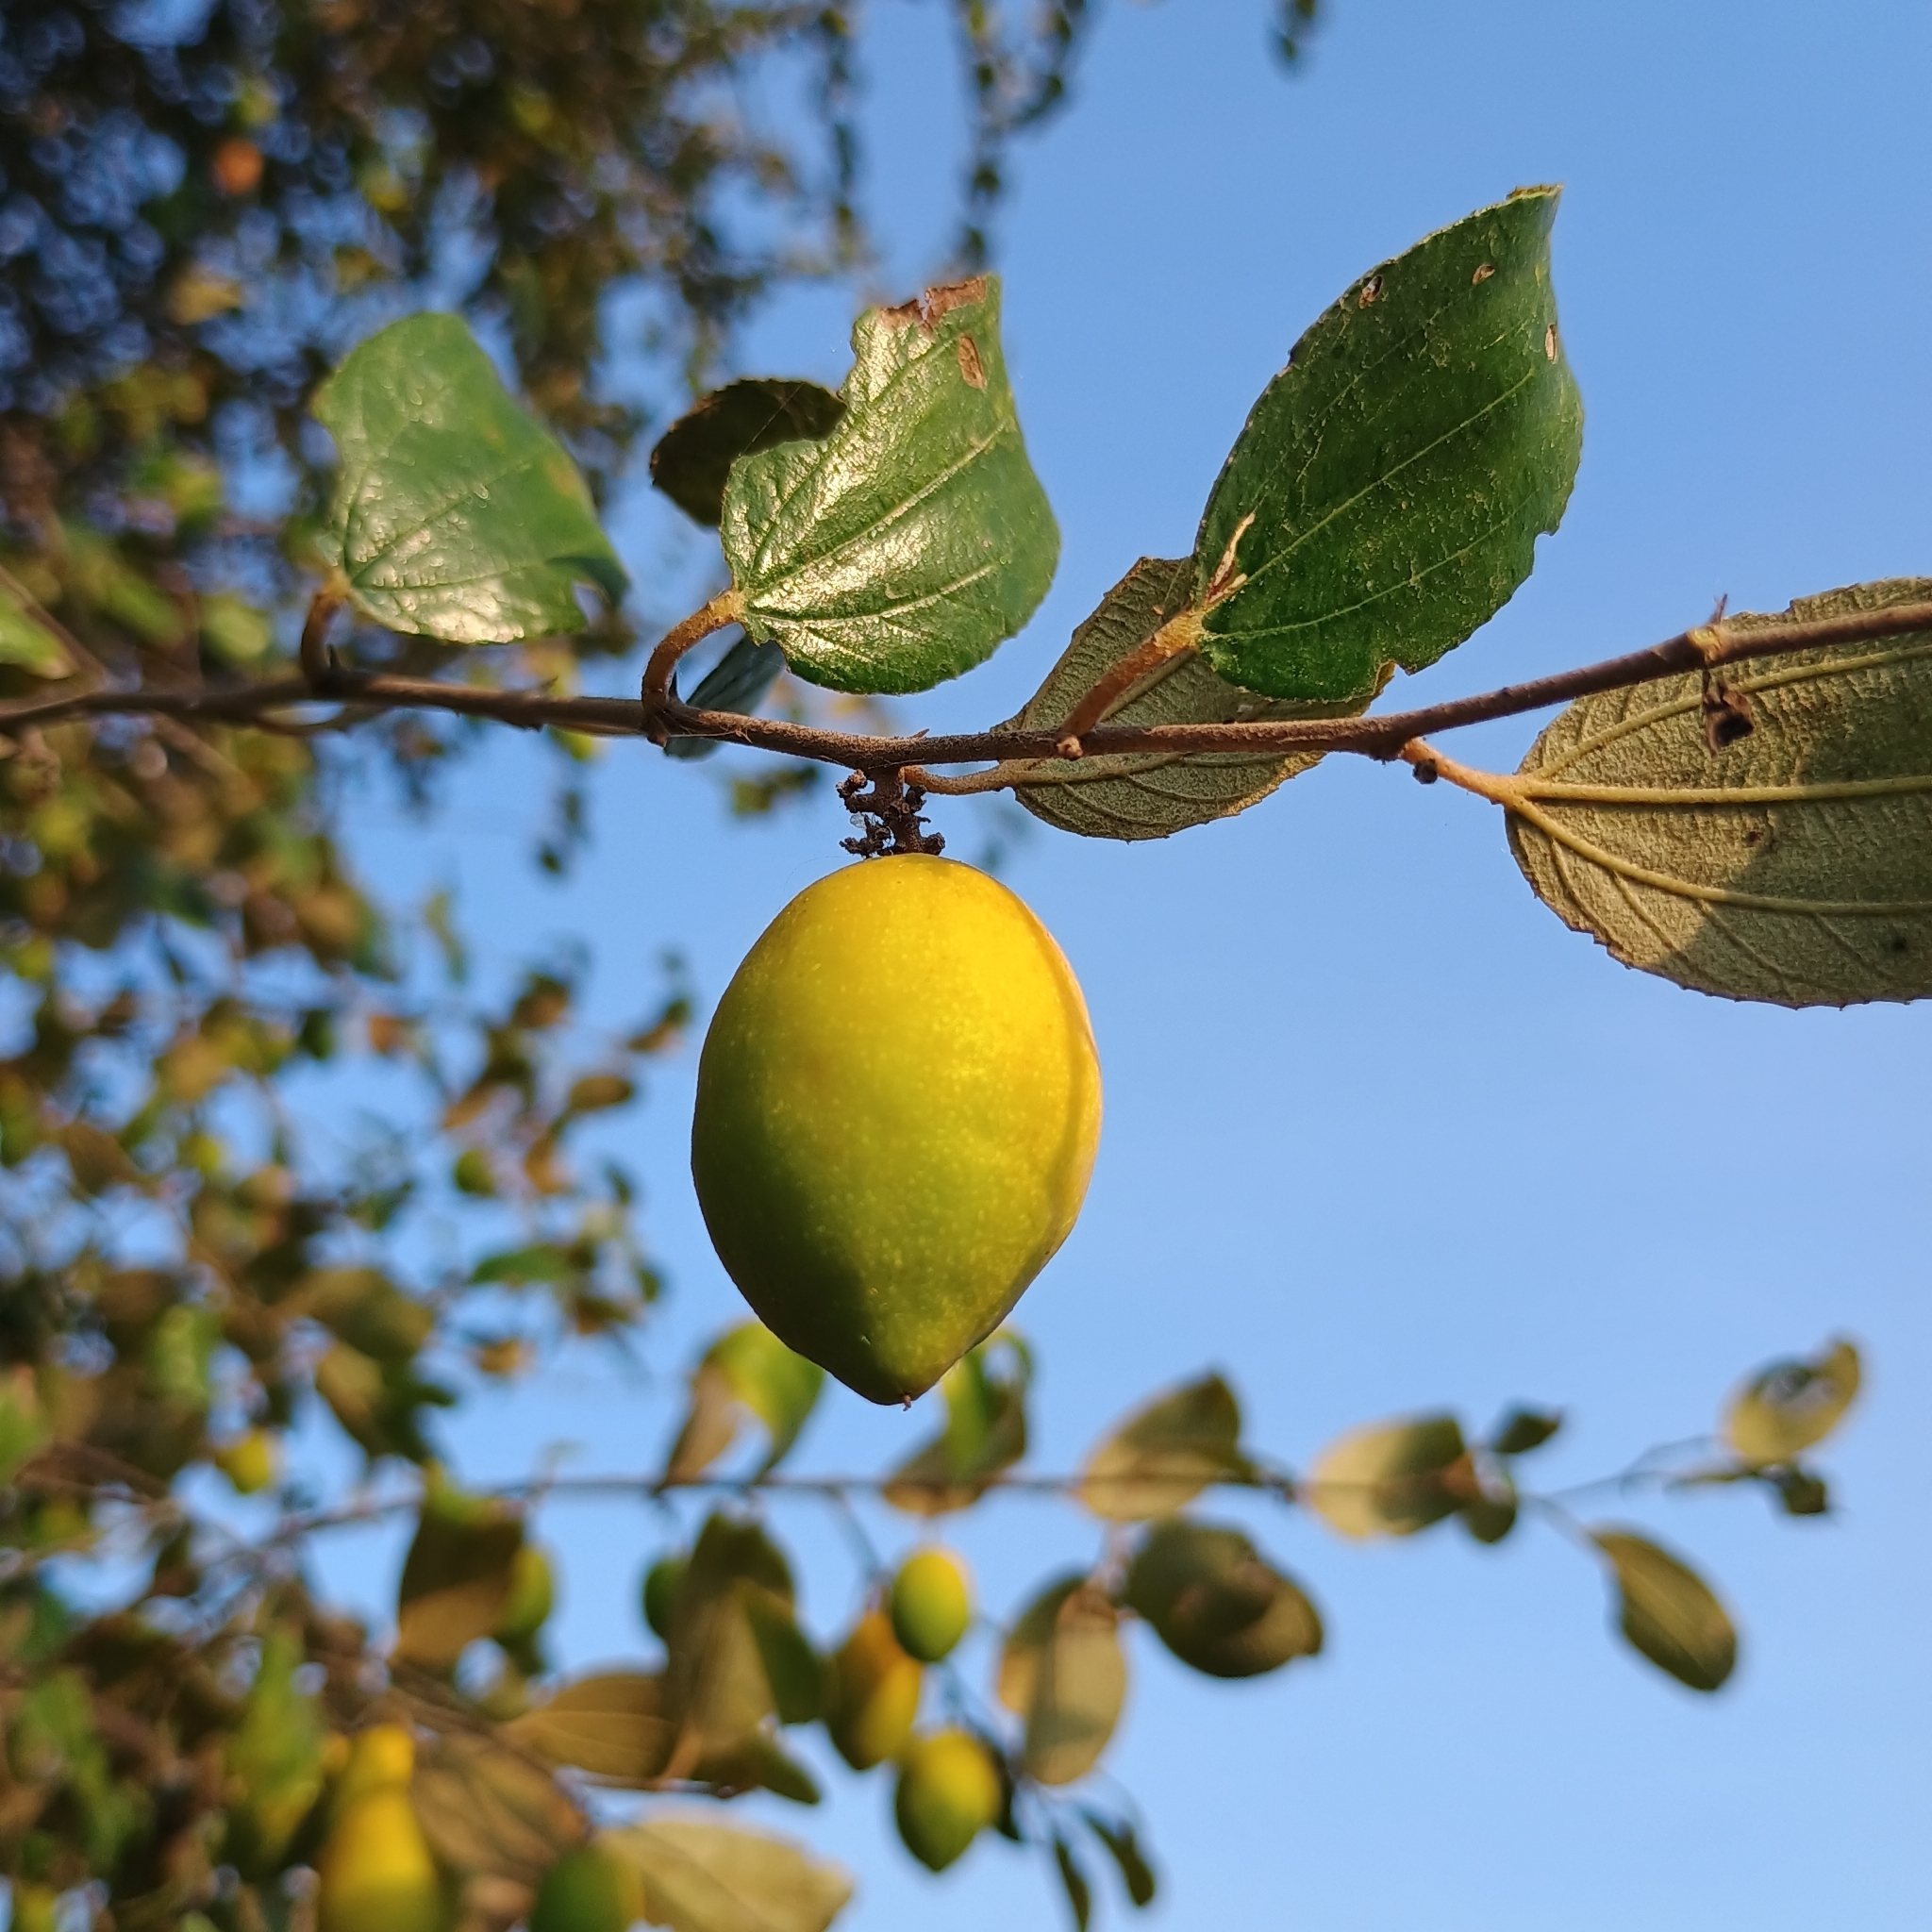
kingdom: Plantae
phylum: Tracheophyta
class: Magnoliopsida
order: Rosales
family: Rhamnaceae
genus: Ziziphus
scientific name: Ziziphus mauritiana
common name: Indian jujube
